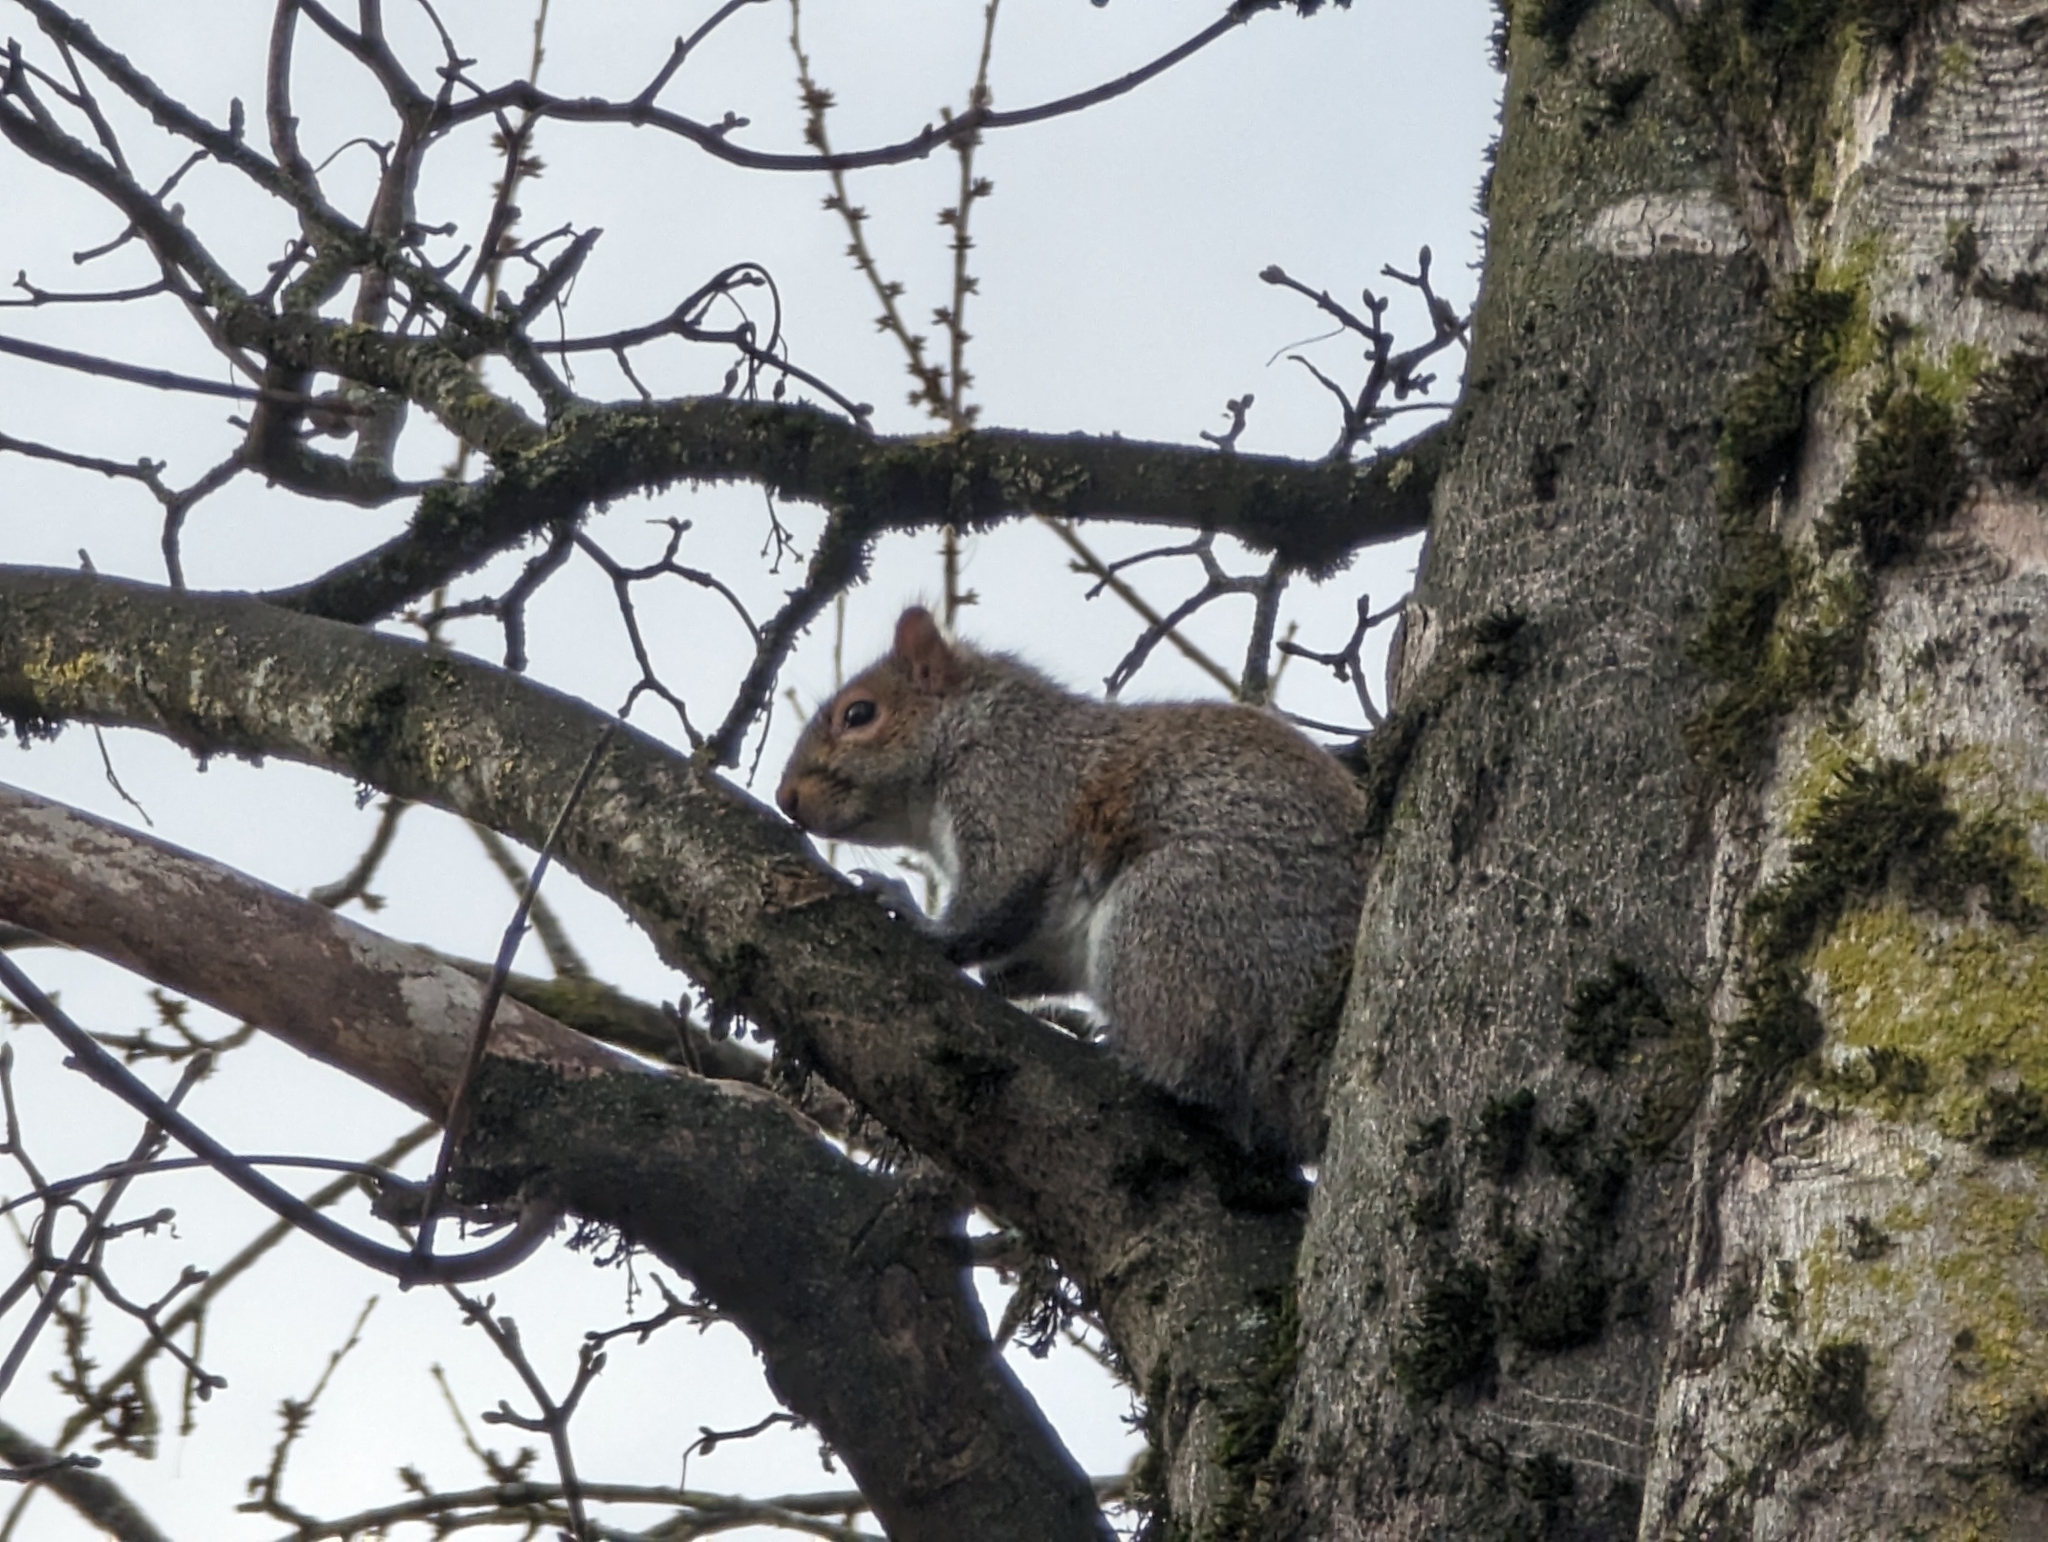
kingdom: Animalia
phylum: Chordata
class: Mammalia
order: Rodentia
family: Sciuridae
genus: Sciurus
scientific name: Sciurus carolinensis
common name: Eastern gray squirrel
